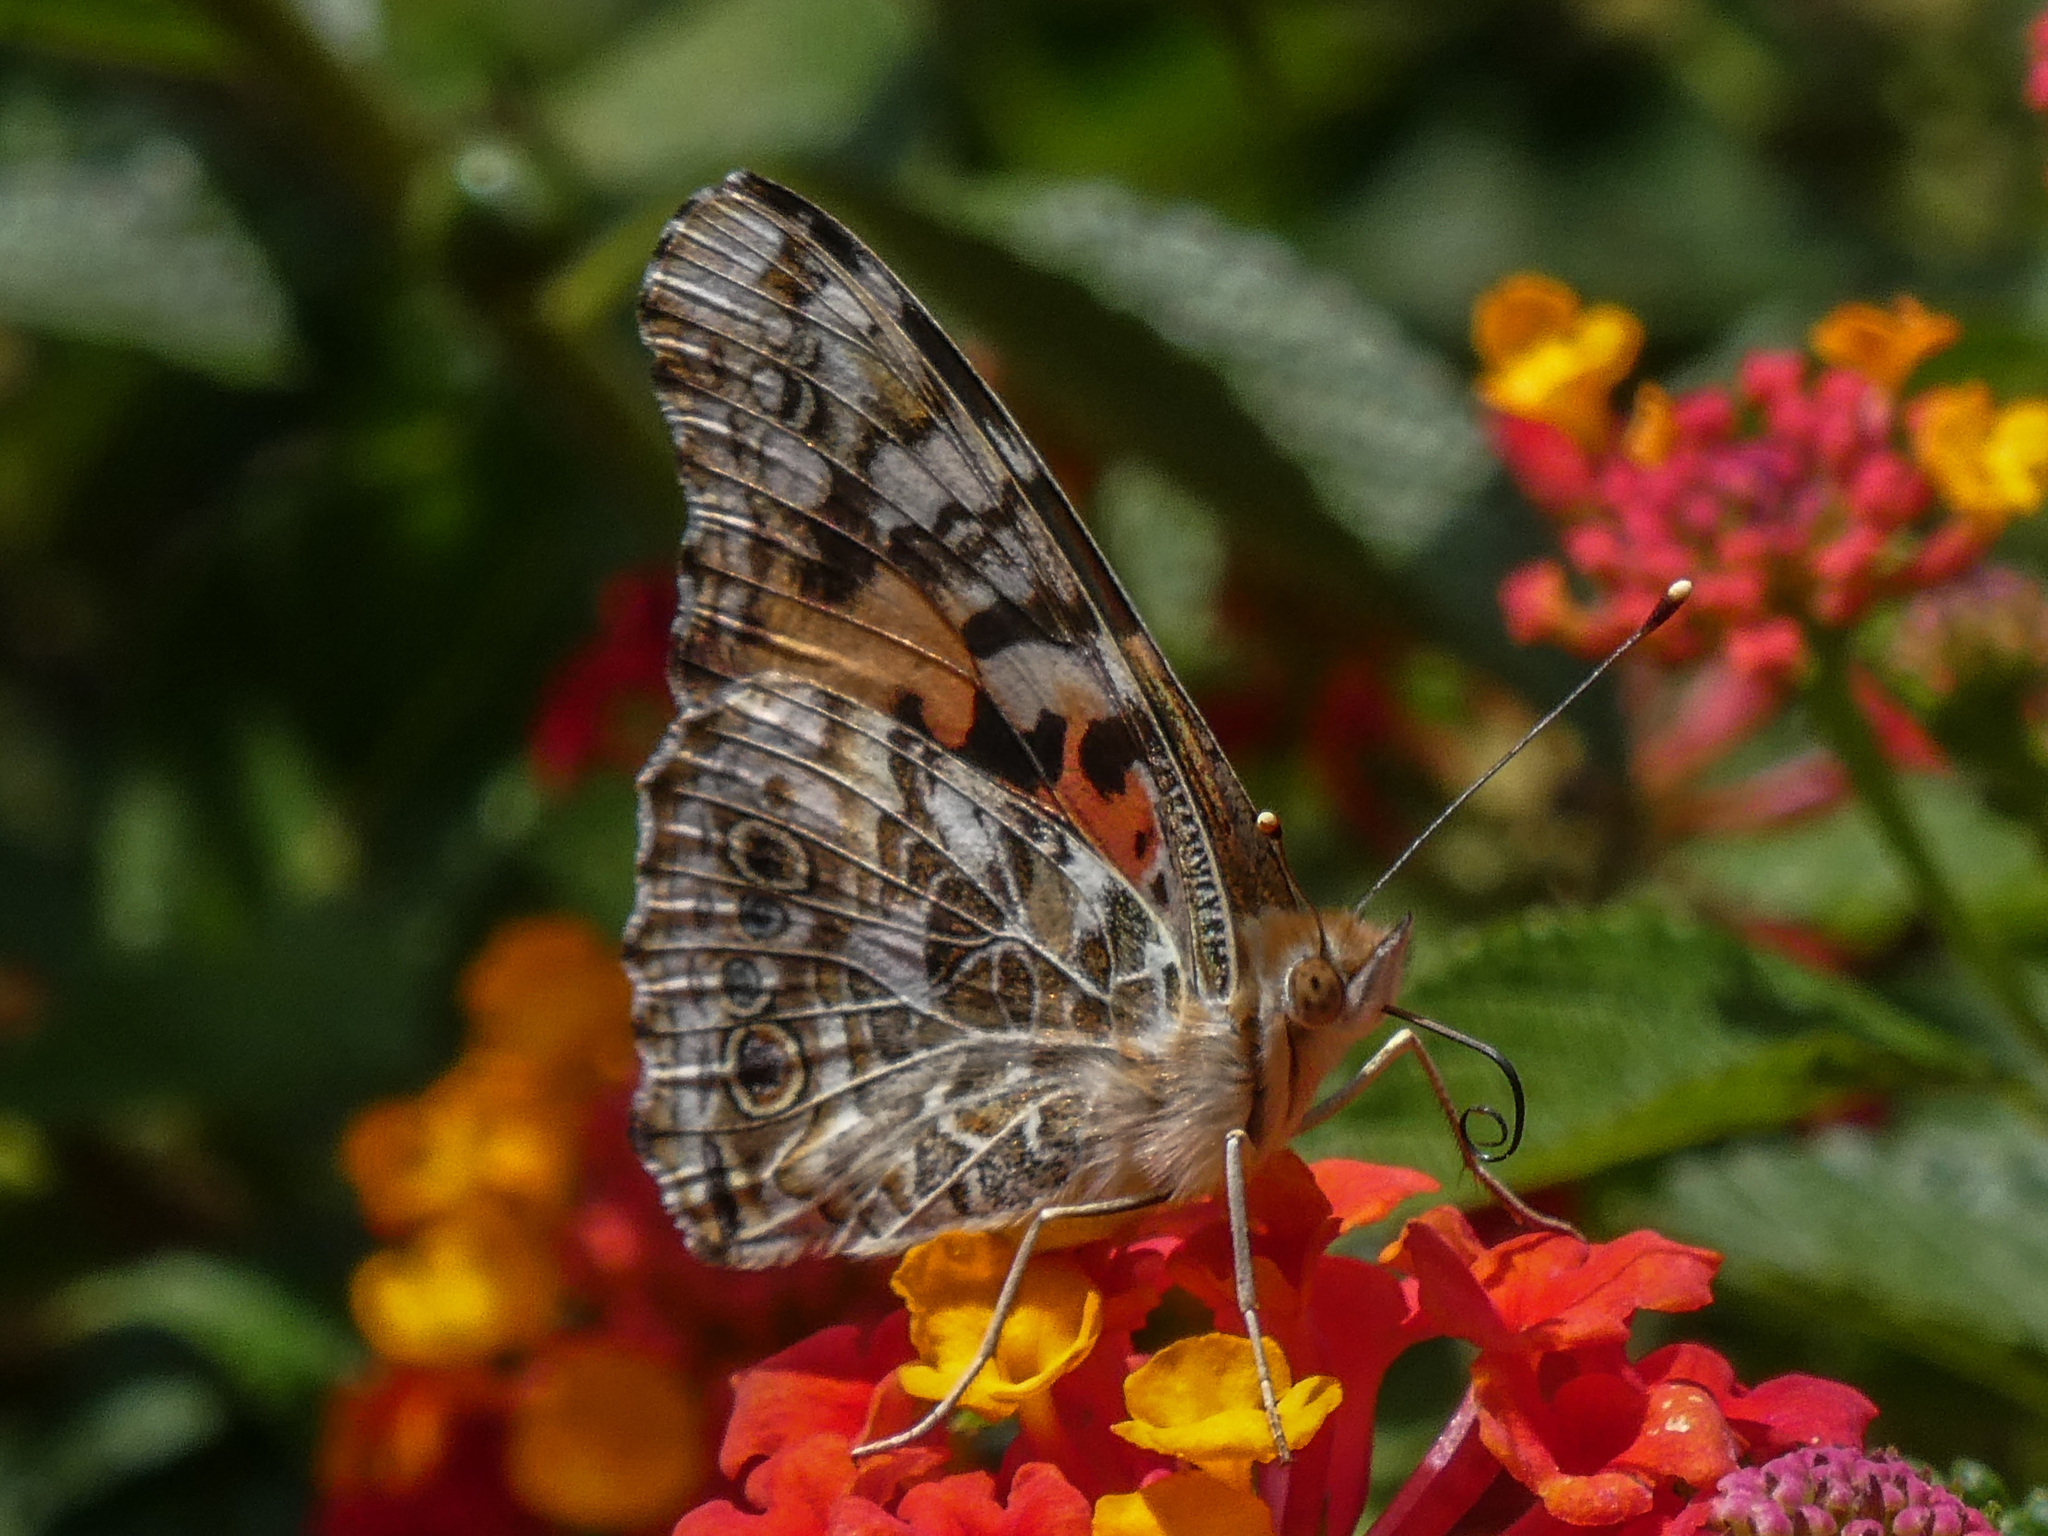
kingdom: Animalia
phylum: Arthropoda
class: Insecta
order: Lepidoptera
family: Nymphalidae
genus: Vanessa
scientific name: Vanessa cardui
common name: Painted lady
